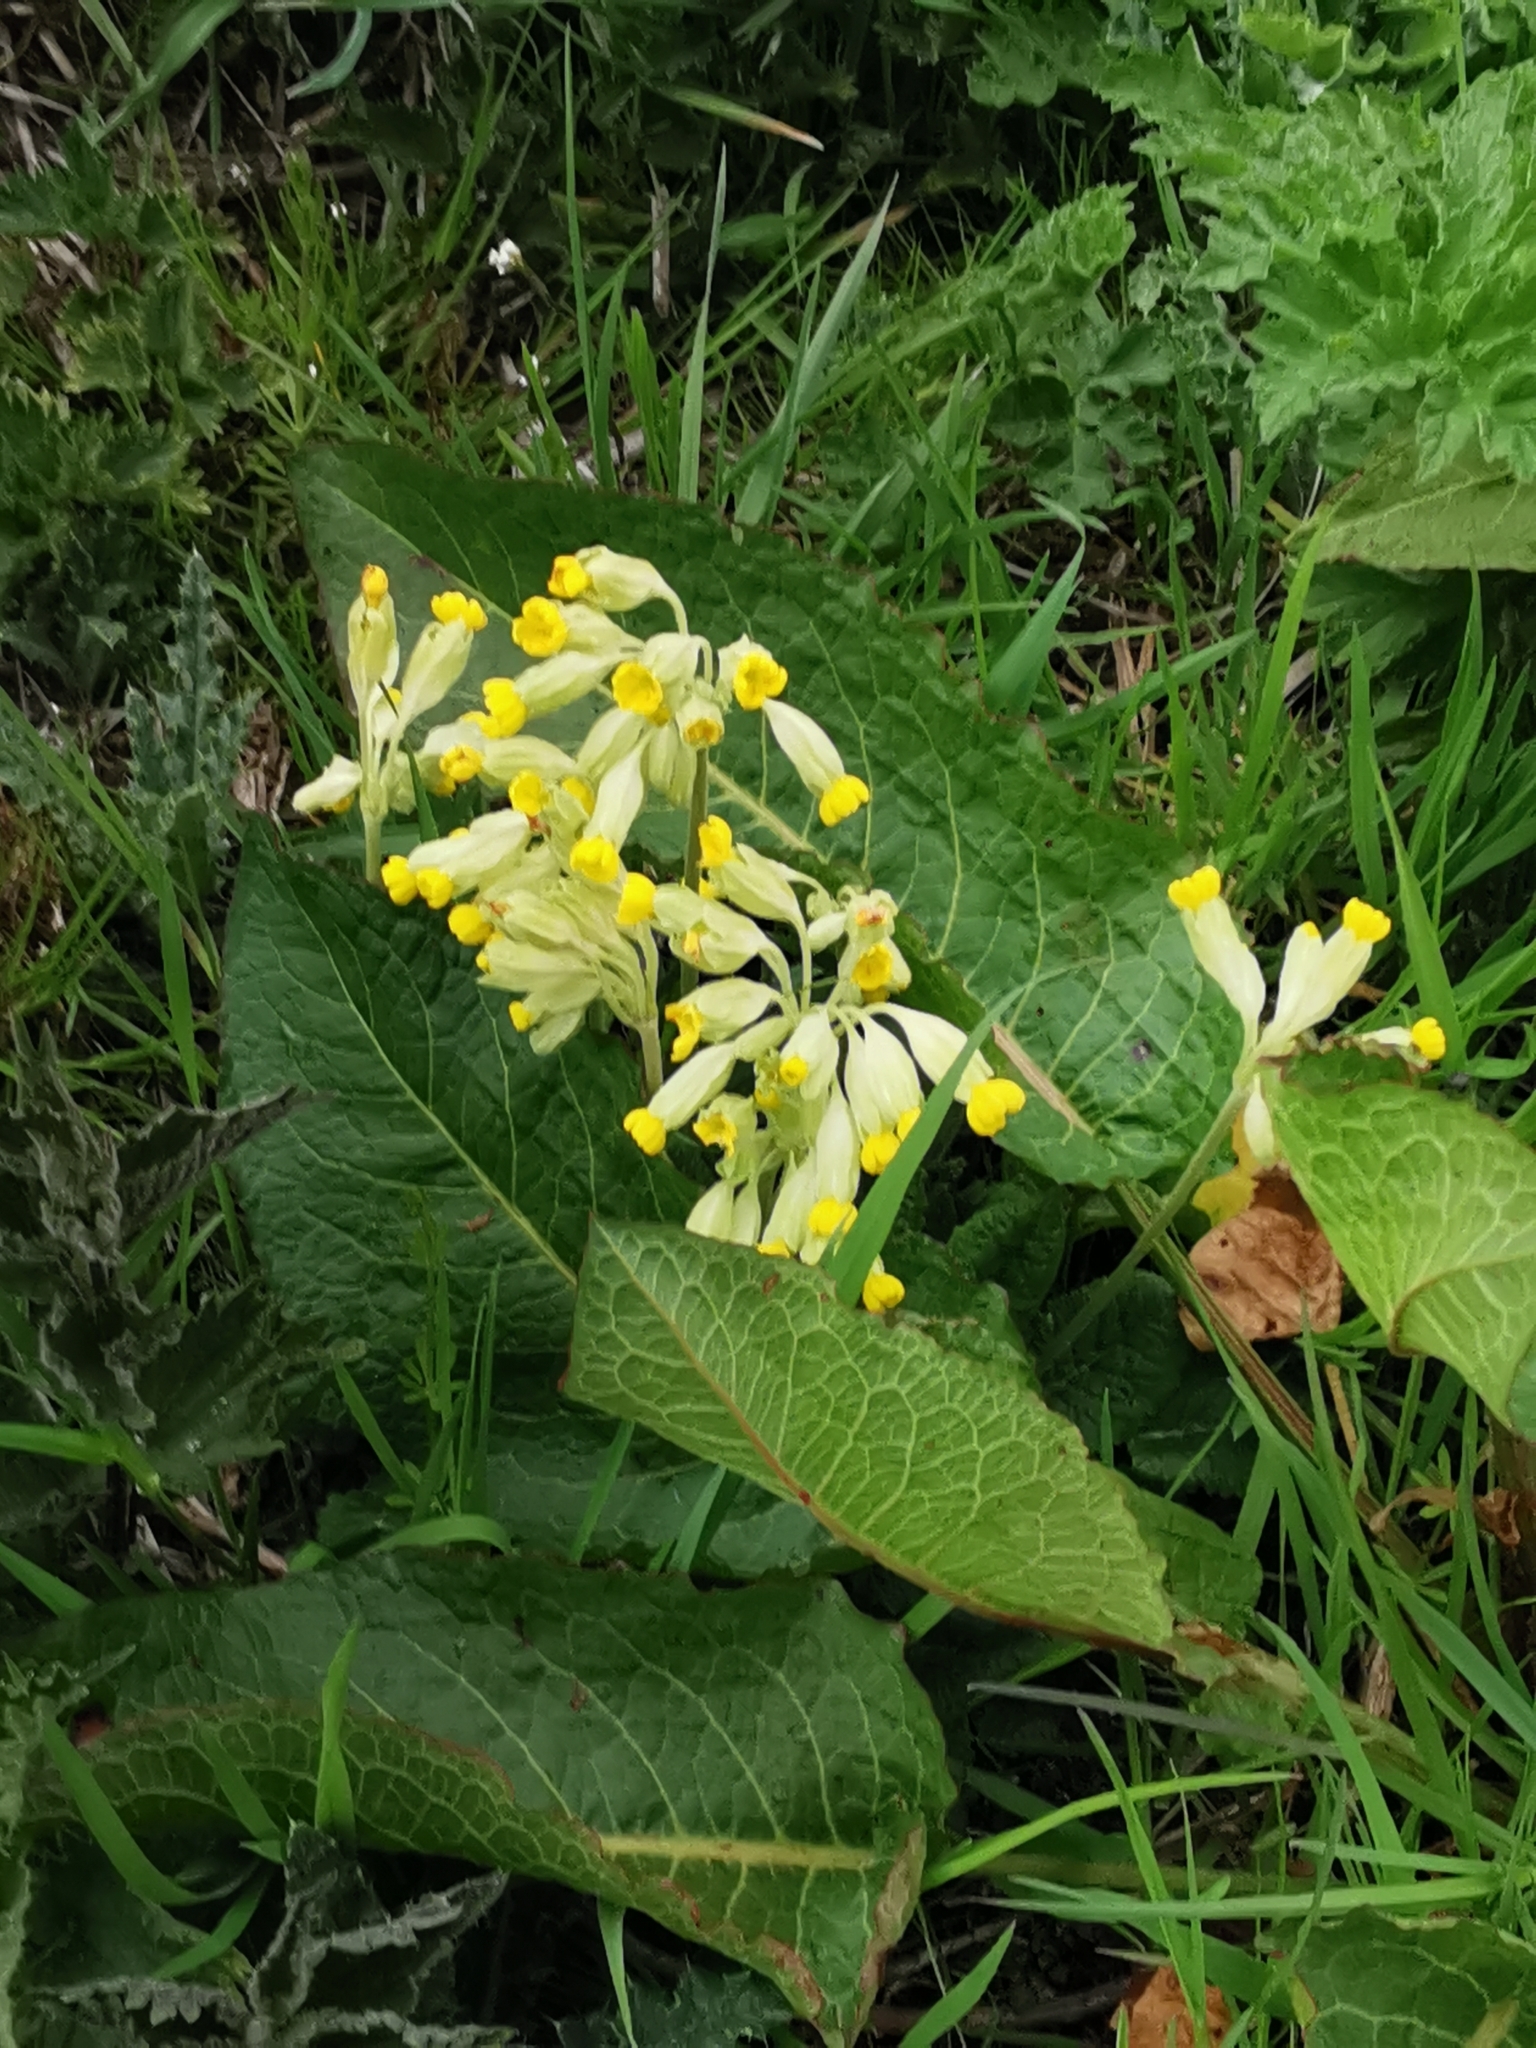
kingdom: Plantae
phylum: Tracheophyta
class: Magnoliopsida
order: Ericales
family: Primulaceae
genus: Primula
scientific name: Primula veris
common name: Cowslip
